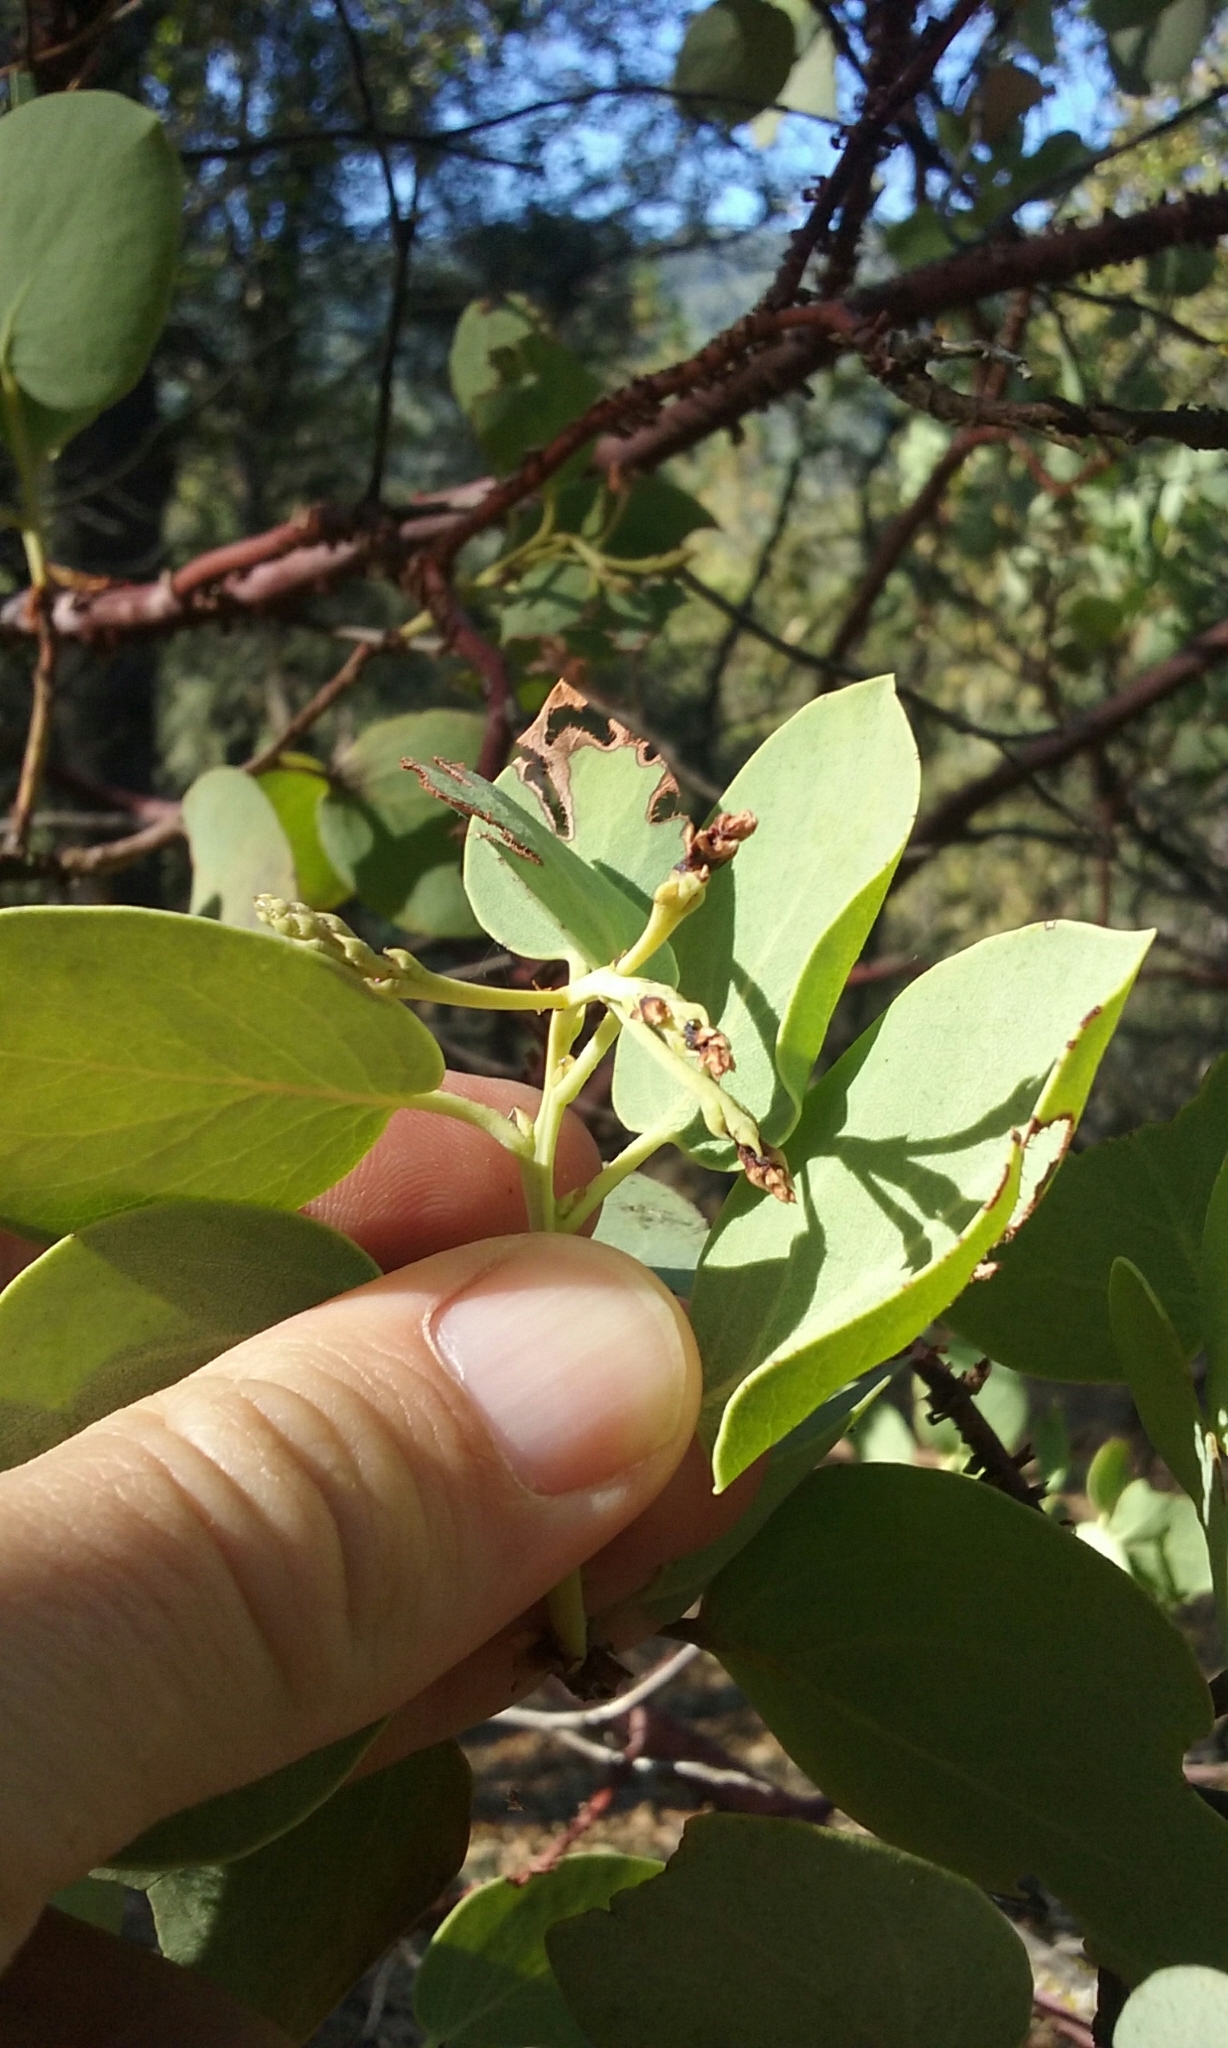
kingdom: Plantae
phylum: Tracheophyta
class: Magnoliopsida
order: Ericales
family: Ericaceae
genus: Arctostaphylos
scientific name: Arctostaphylos viscida
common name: White-leaf manzanita
